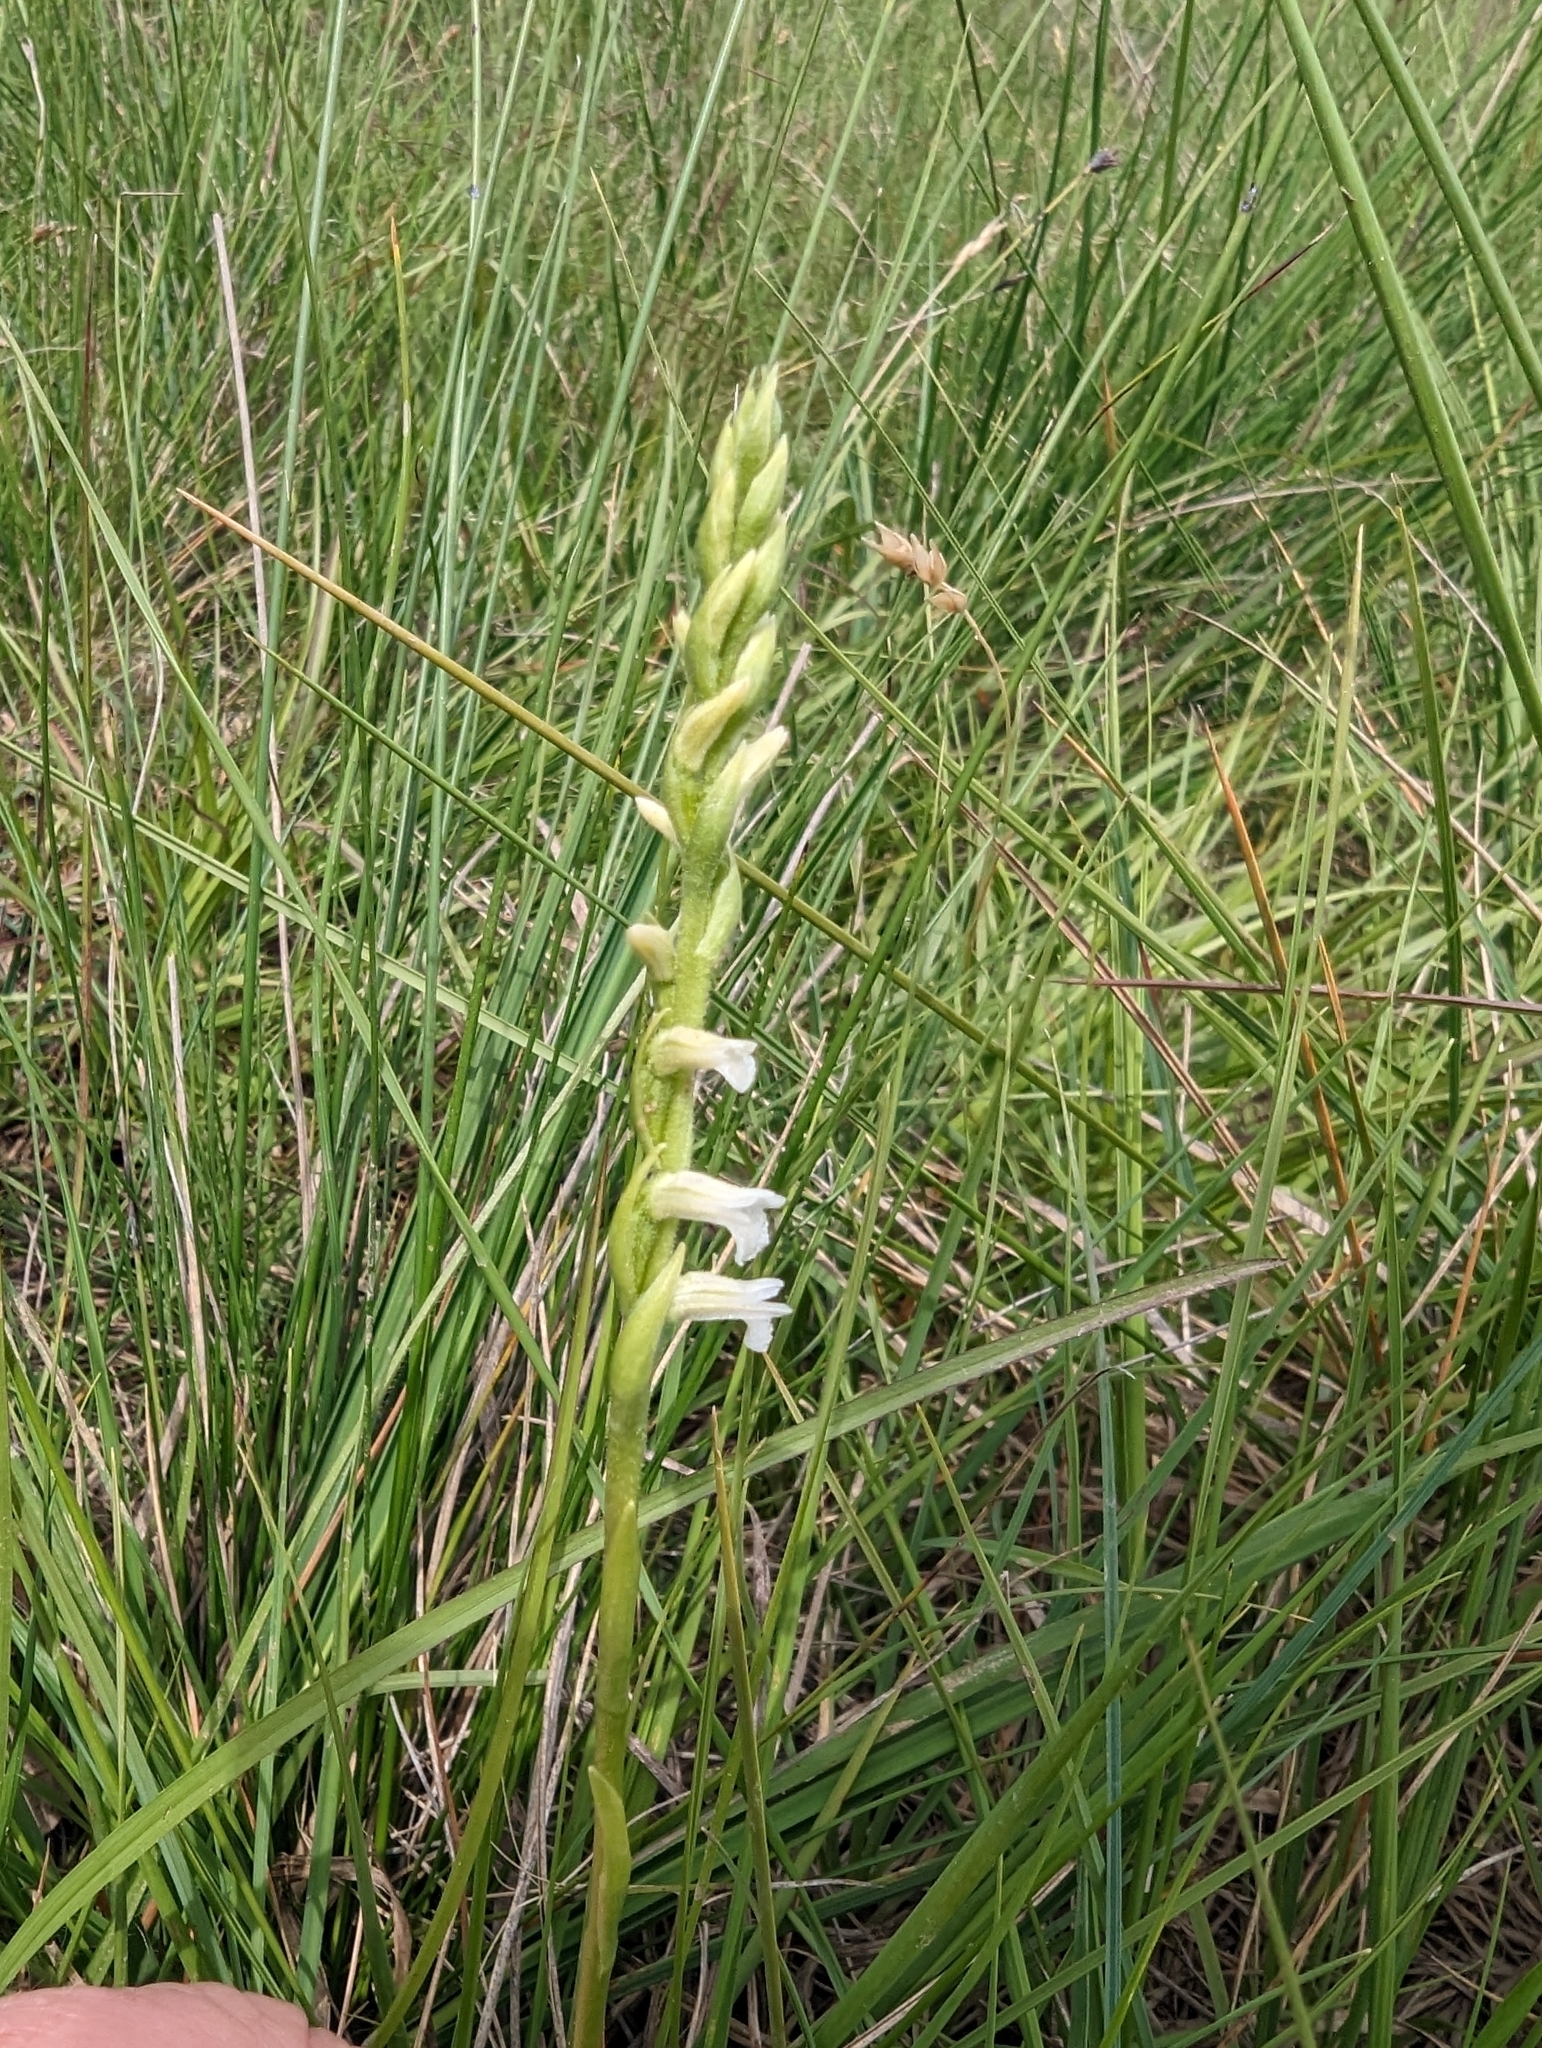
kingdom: Plantae
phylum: Tracheophyta
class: Liliopsida
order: Asparagales
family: Orchidaceae
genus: Spiranthes
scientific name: Spiranthes aestivalis
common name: Summer lady's-tresses
